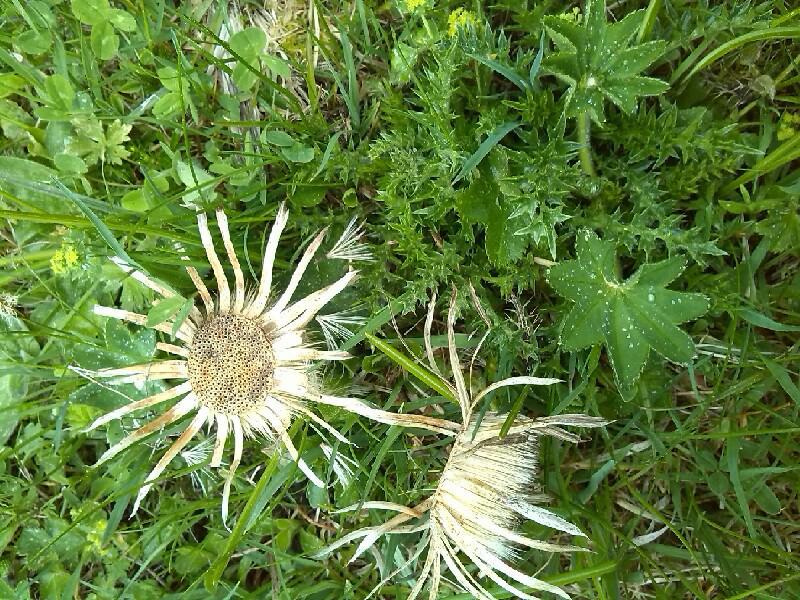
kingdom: Plantae
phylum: Tracheophyta
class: Magnoliopsida
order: Asterales
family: Asteraceae
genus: Carlina
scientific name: Carlina acaulis
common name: Stemless carline thistle
